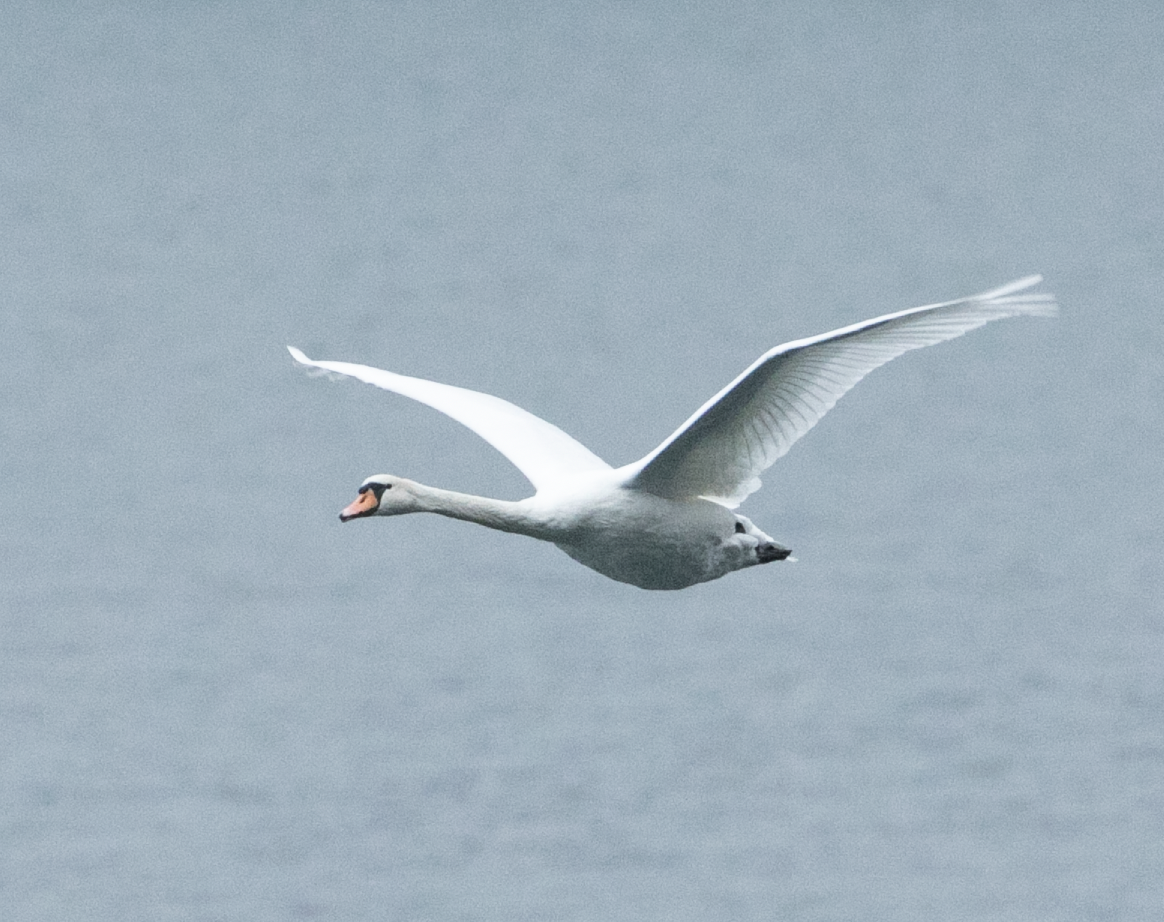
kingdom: Animalia
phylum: Chordata
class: Aves
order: Anseriformes
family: Anatidae
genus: Cygnus
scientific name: Cygnus olor
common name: Mute swan
